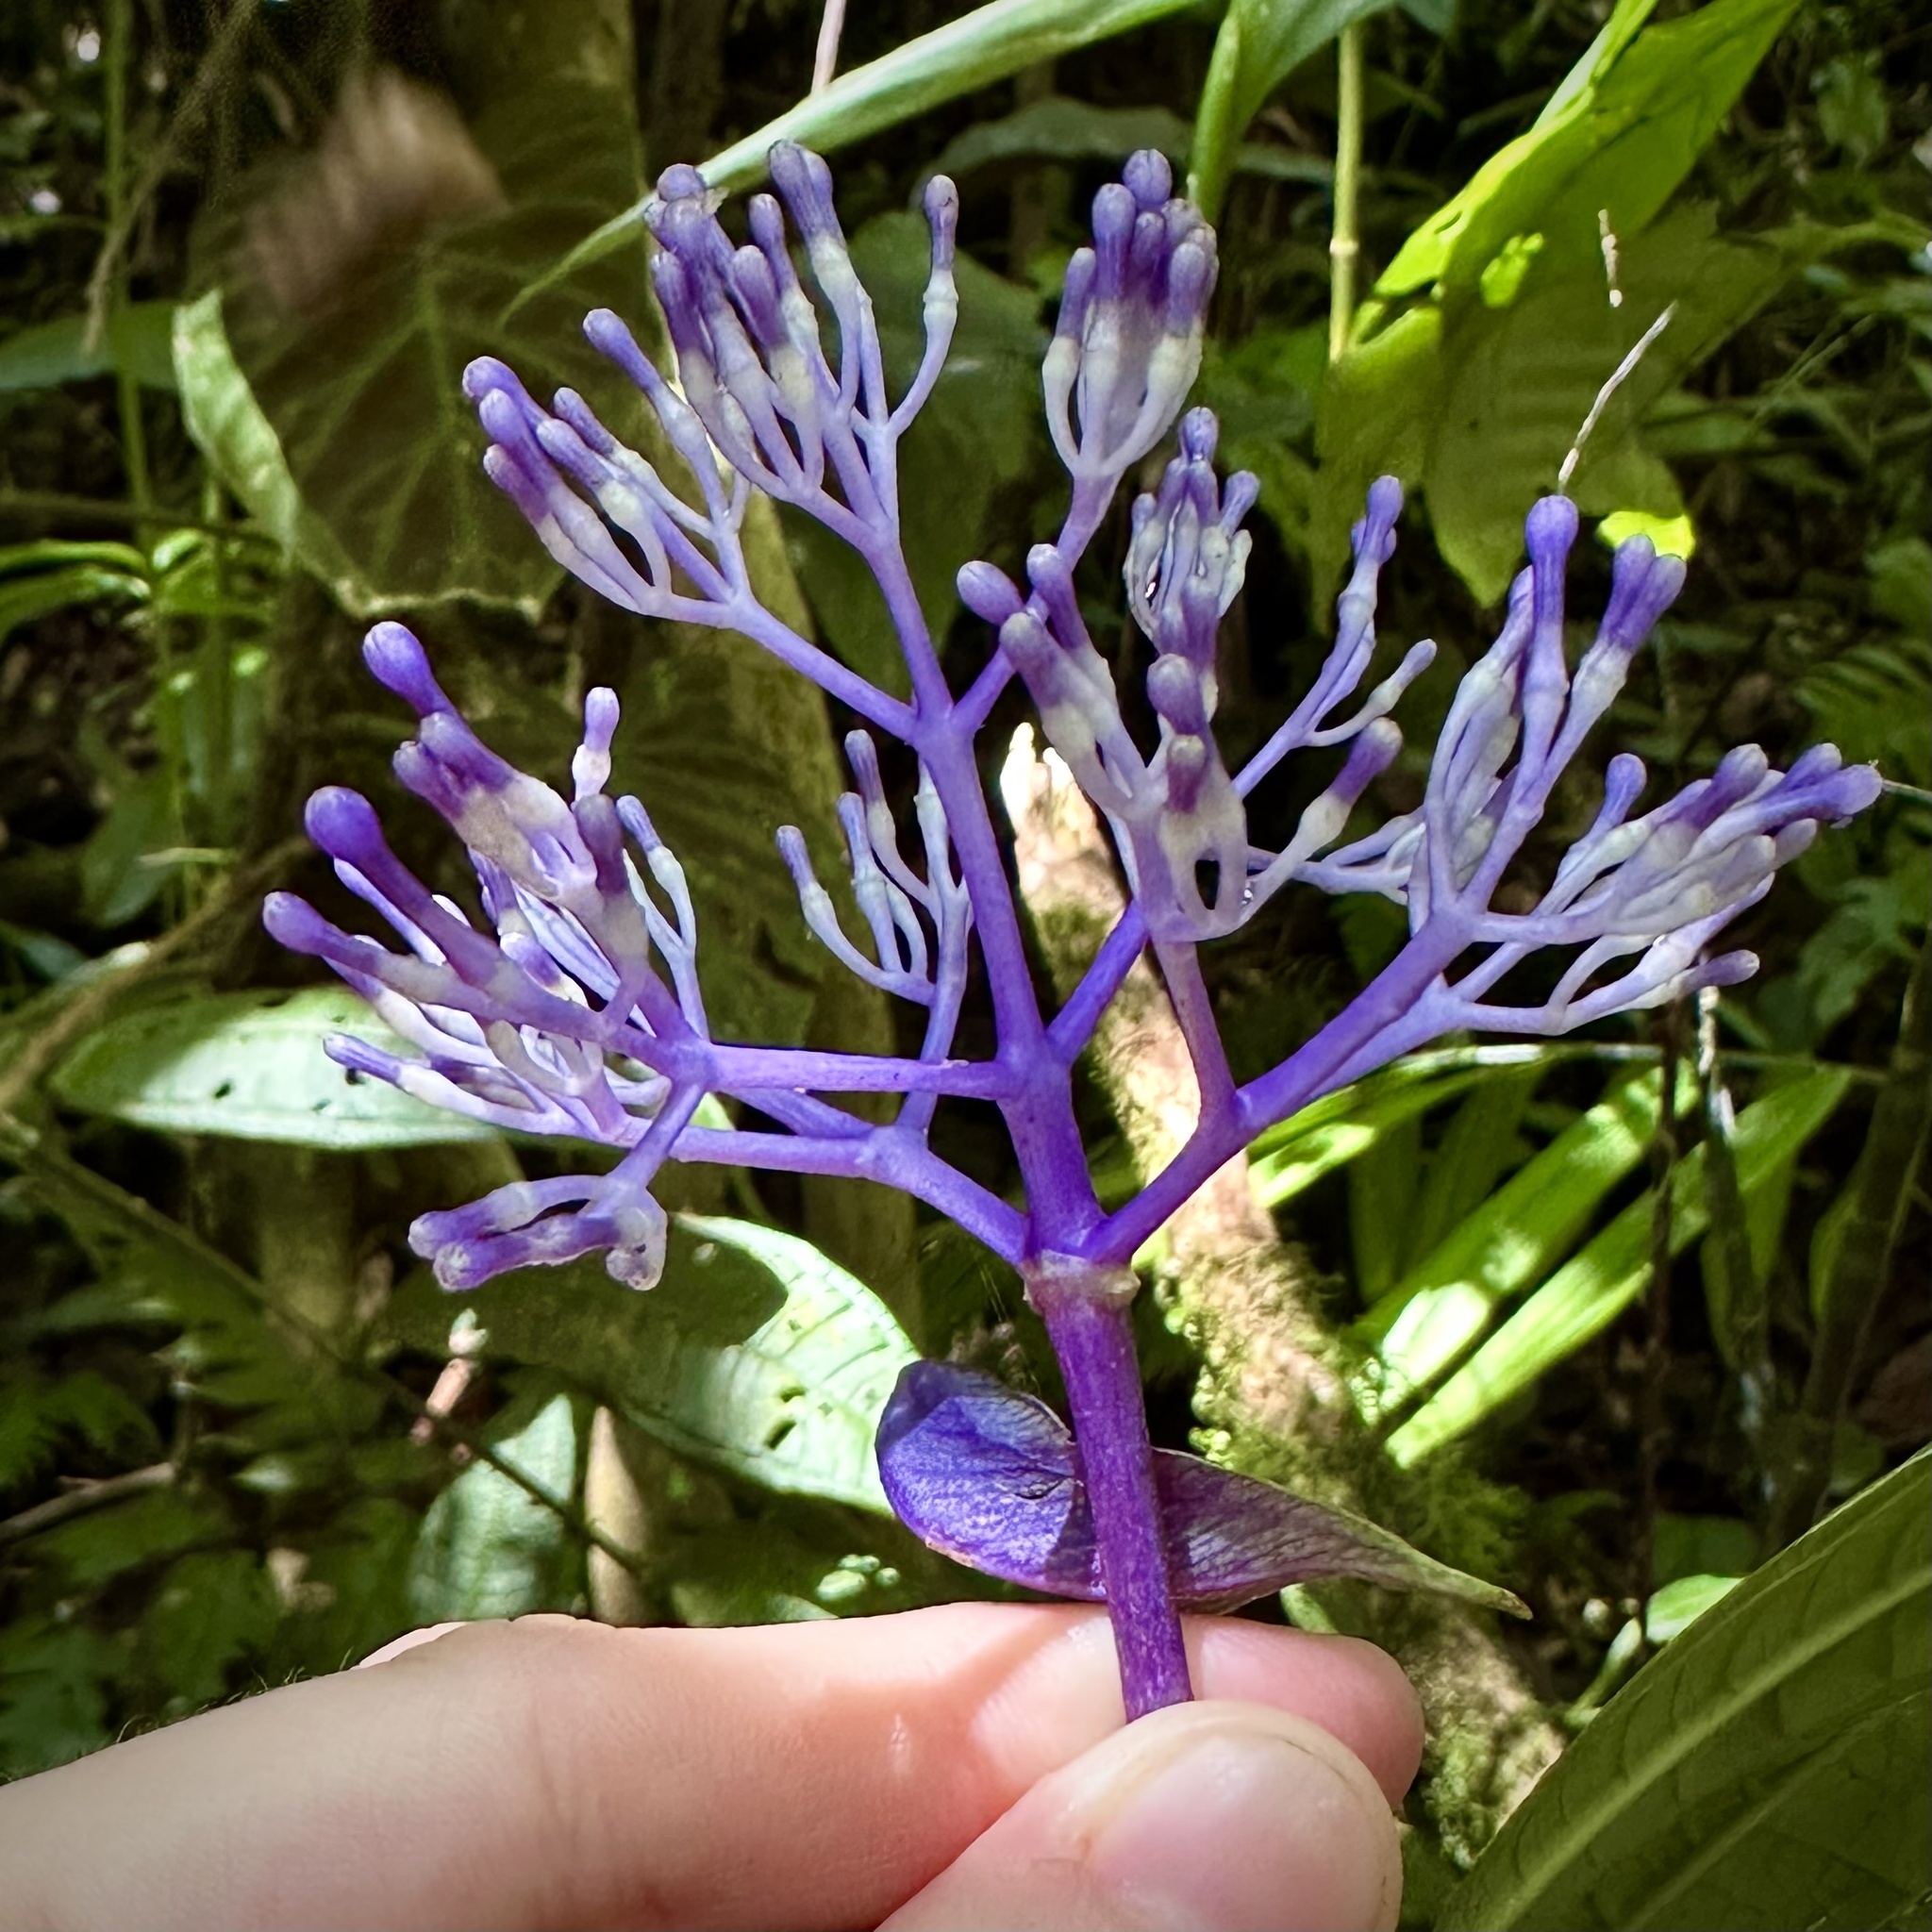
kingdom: Plantae
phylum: Tracheophyta
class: Magnoliopsida
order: Gentianales
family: Rubiaceae
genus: Faramea
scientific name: Faramea suerrensis
